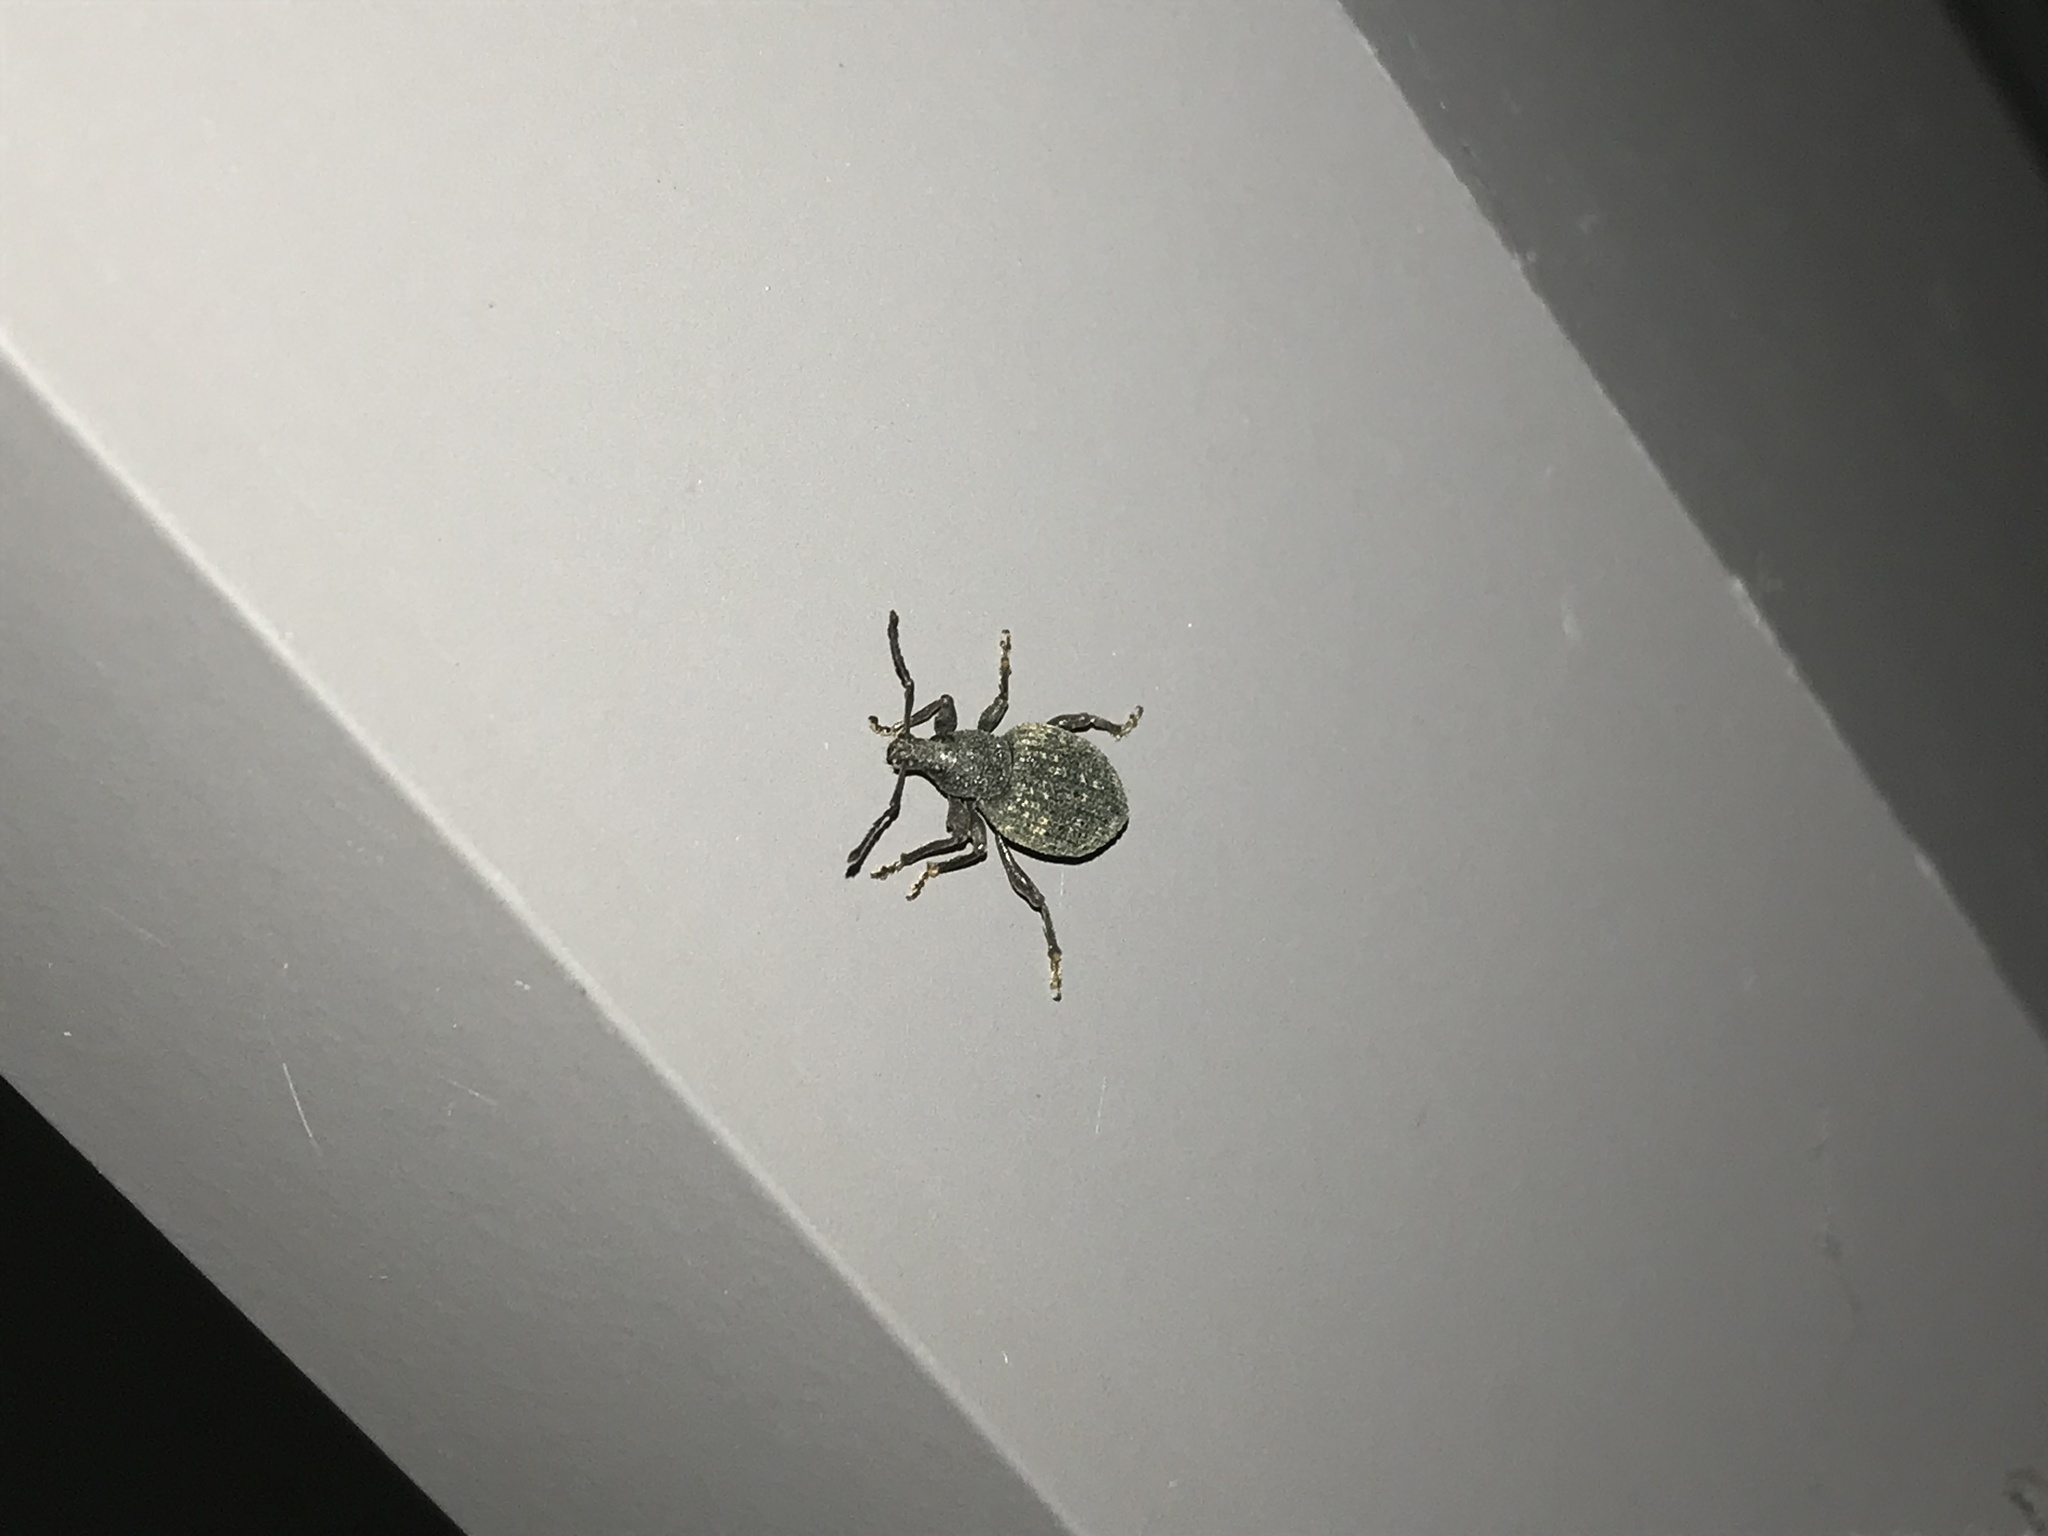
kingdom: Animalia
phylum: Arthropoda
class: Insecta
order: Coleoptera
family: Curculionidae
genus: Otiorhynchus
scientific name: Otiorhynchus sulcatus
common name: Black vine weevil
